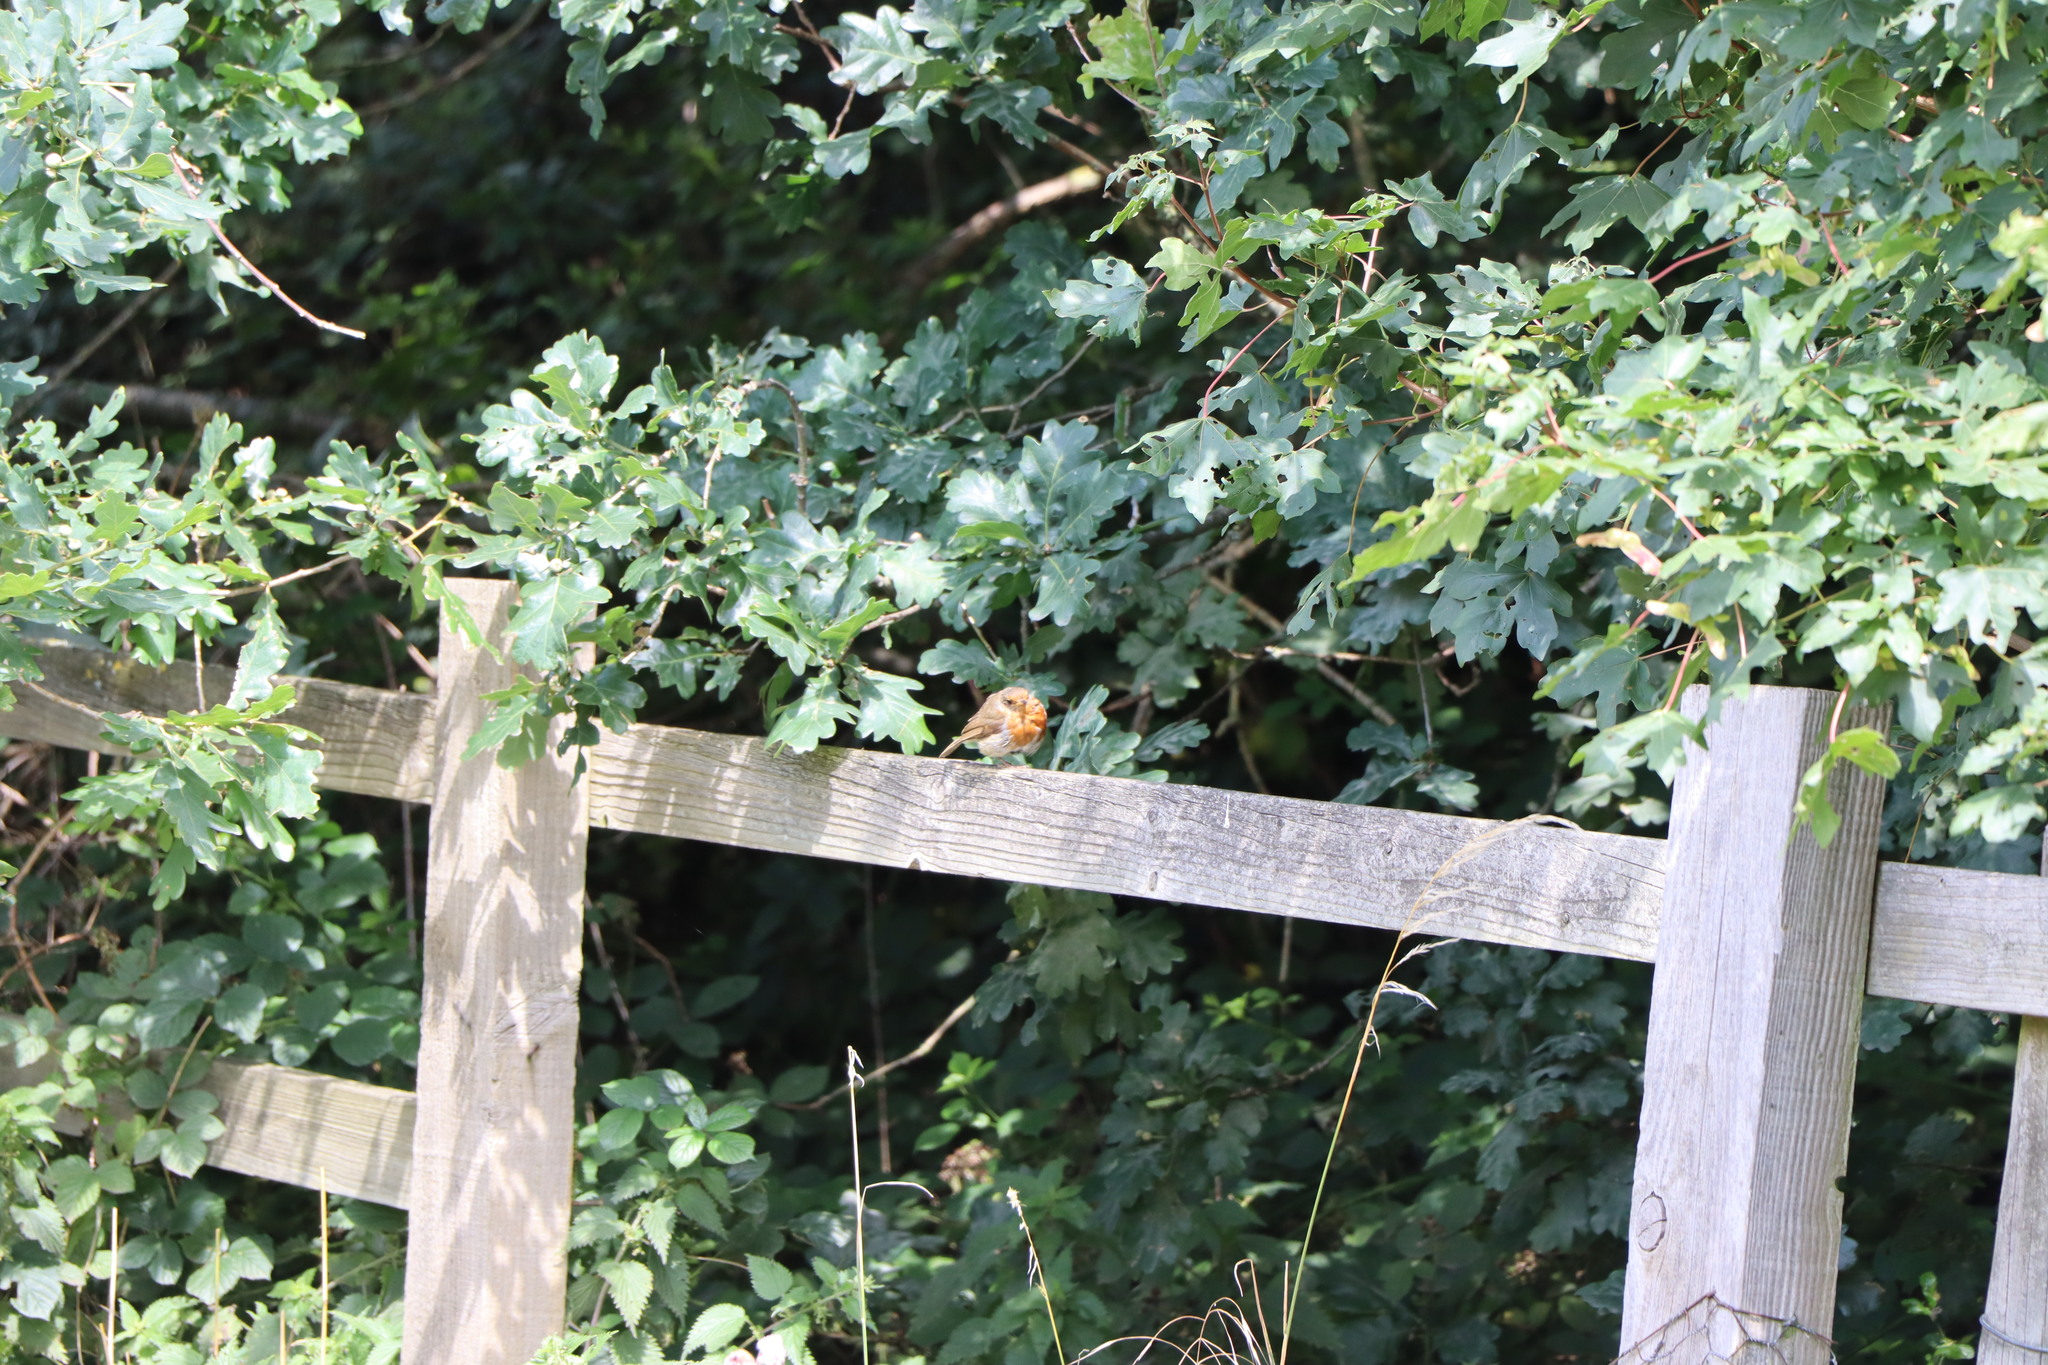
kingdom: Animalia
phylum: Chordata
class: Aves
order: Passeriformes
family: Muscicapidae
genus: Erithacus
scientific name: Erithacus rubecula
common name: European robin
